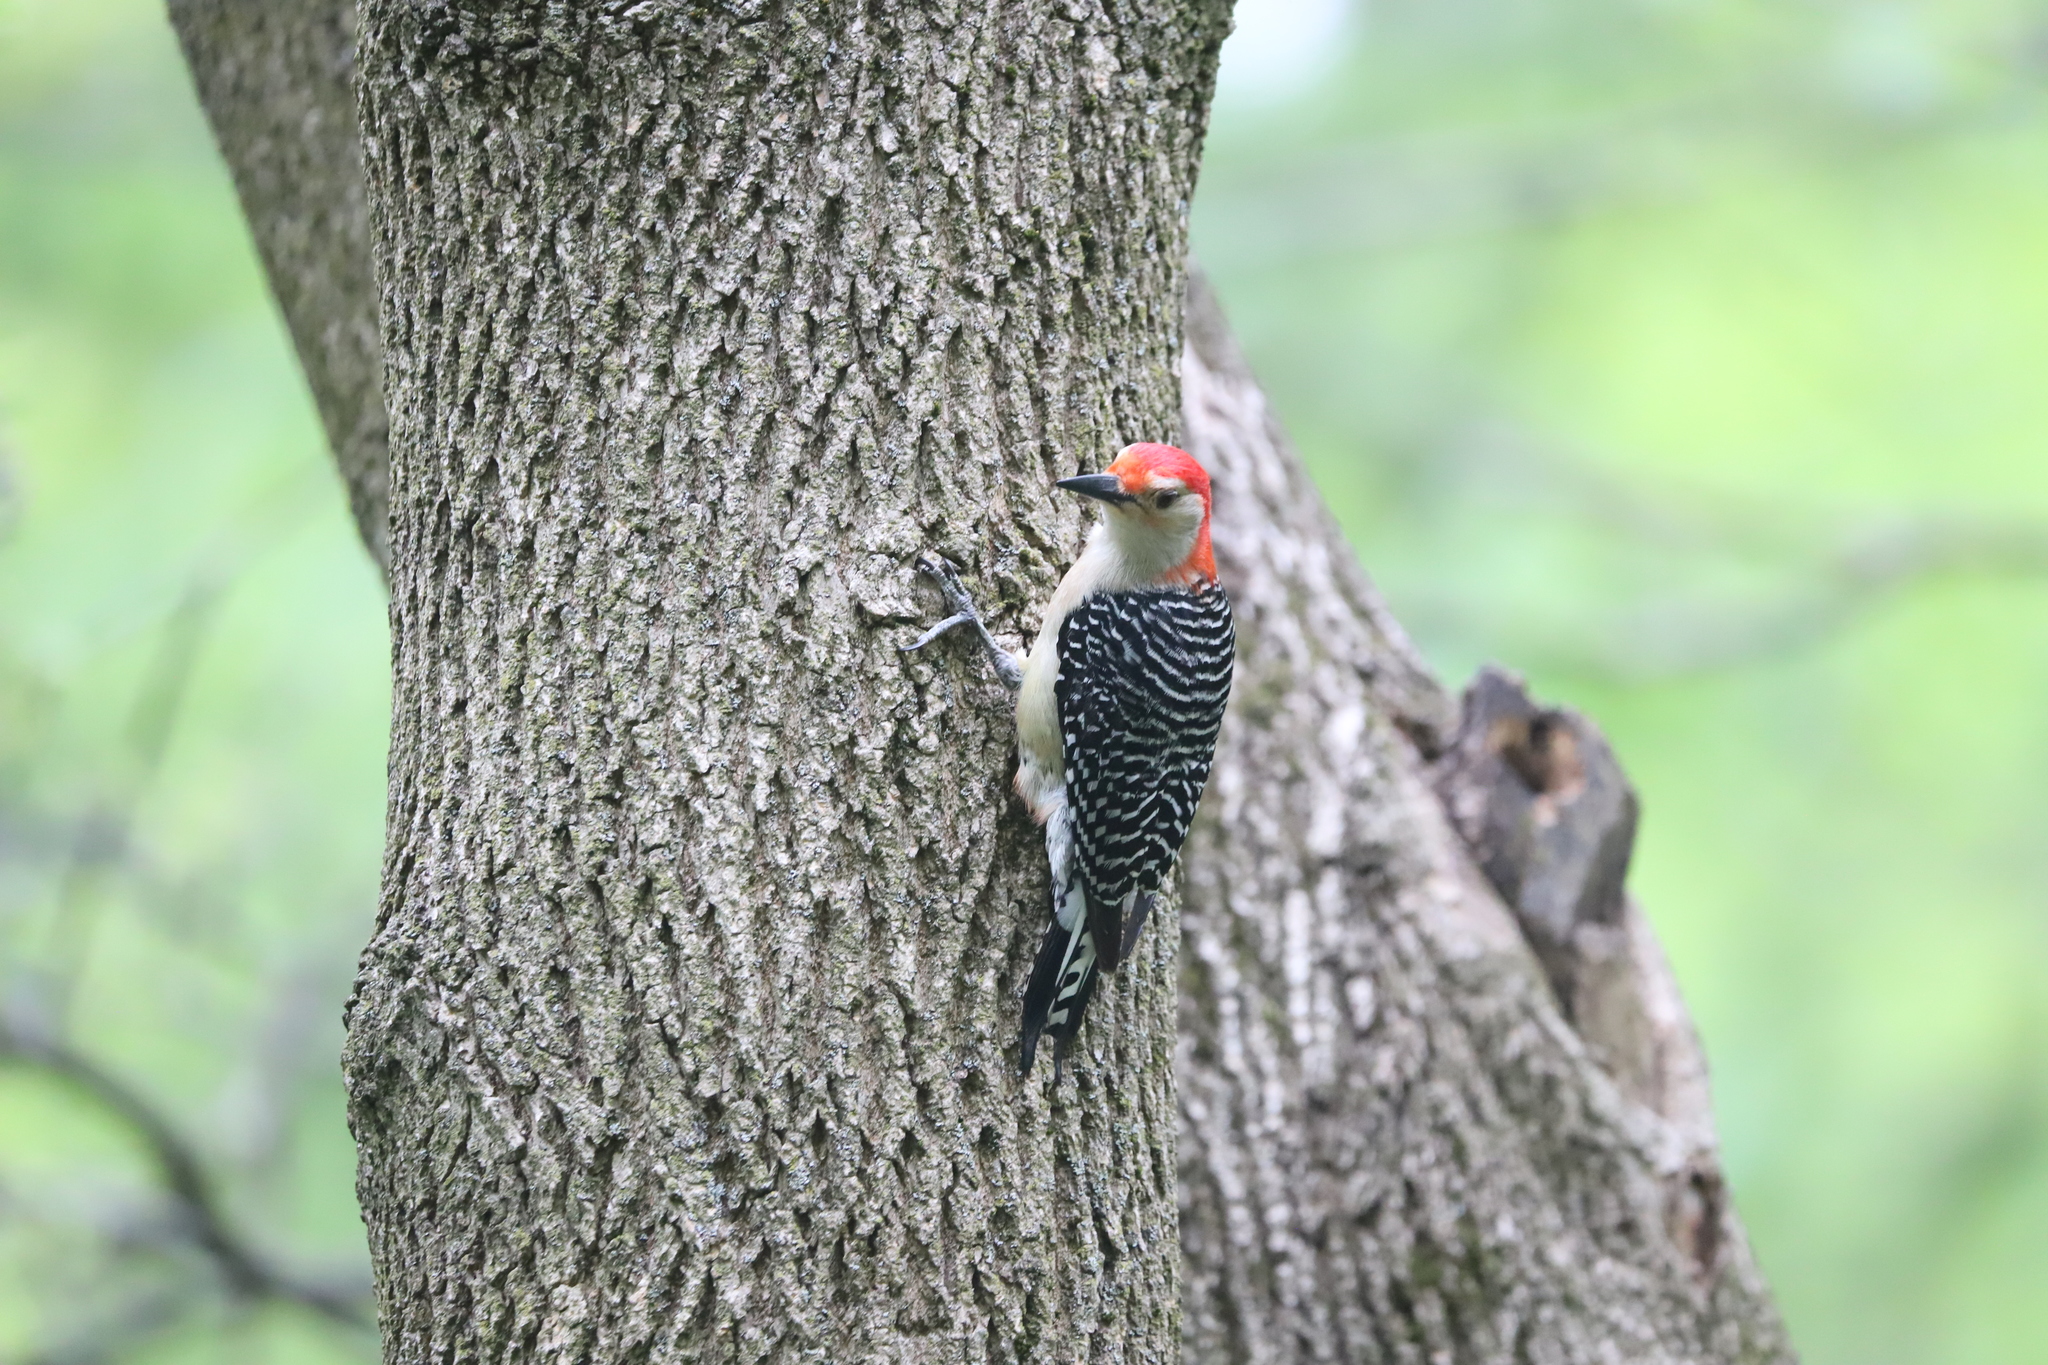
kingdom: Animalia
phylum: Chordata
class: Aves
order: Piciformes
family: Picidae
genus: Melanerpes
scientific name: Melanerpes carolinus
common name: Red-bellied woodpecker
